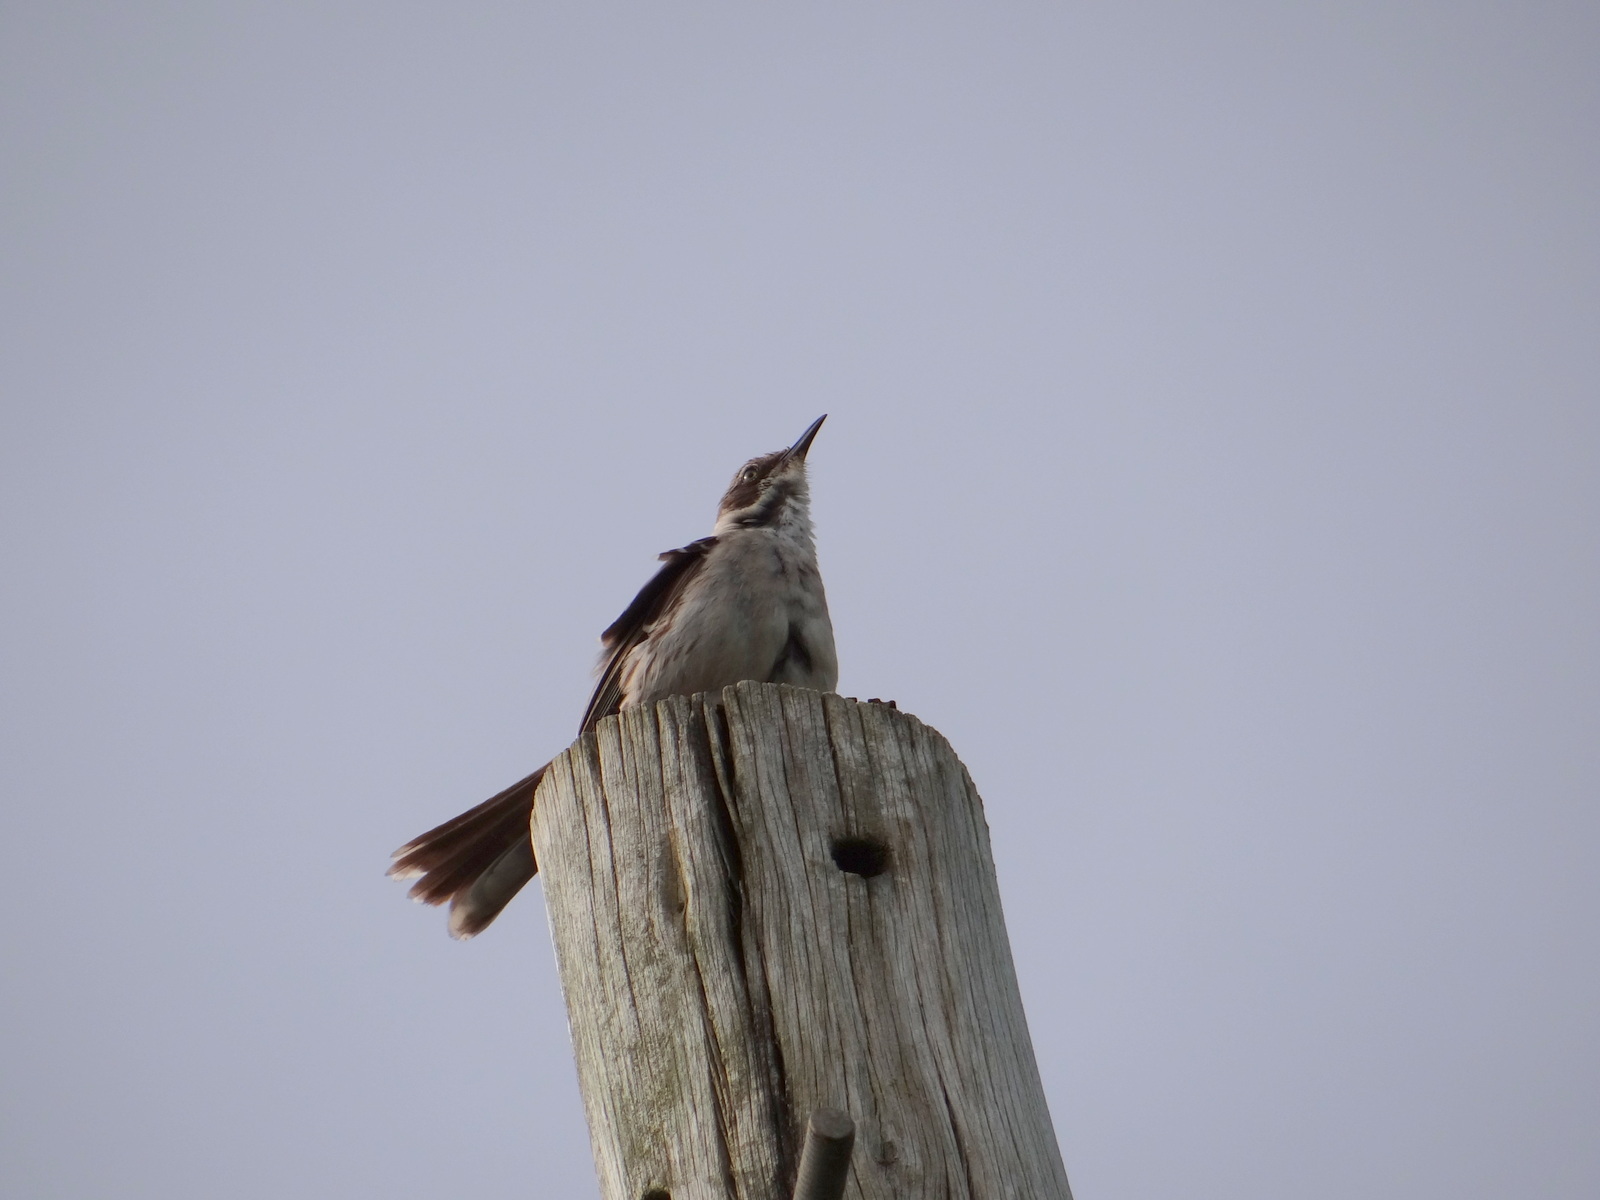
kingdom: Animalia
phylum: Chordata
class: Aves
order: Passeriformes
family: Mimidae
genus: Mimus
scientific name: Mimus parvulus
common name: Galapagos mockingbird
